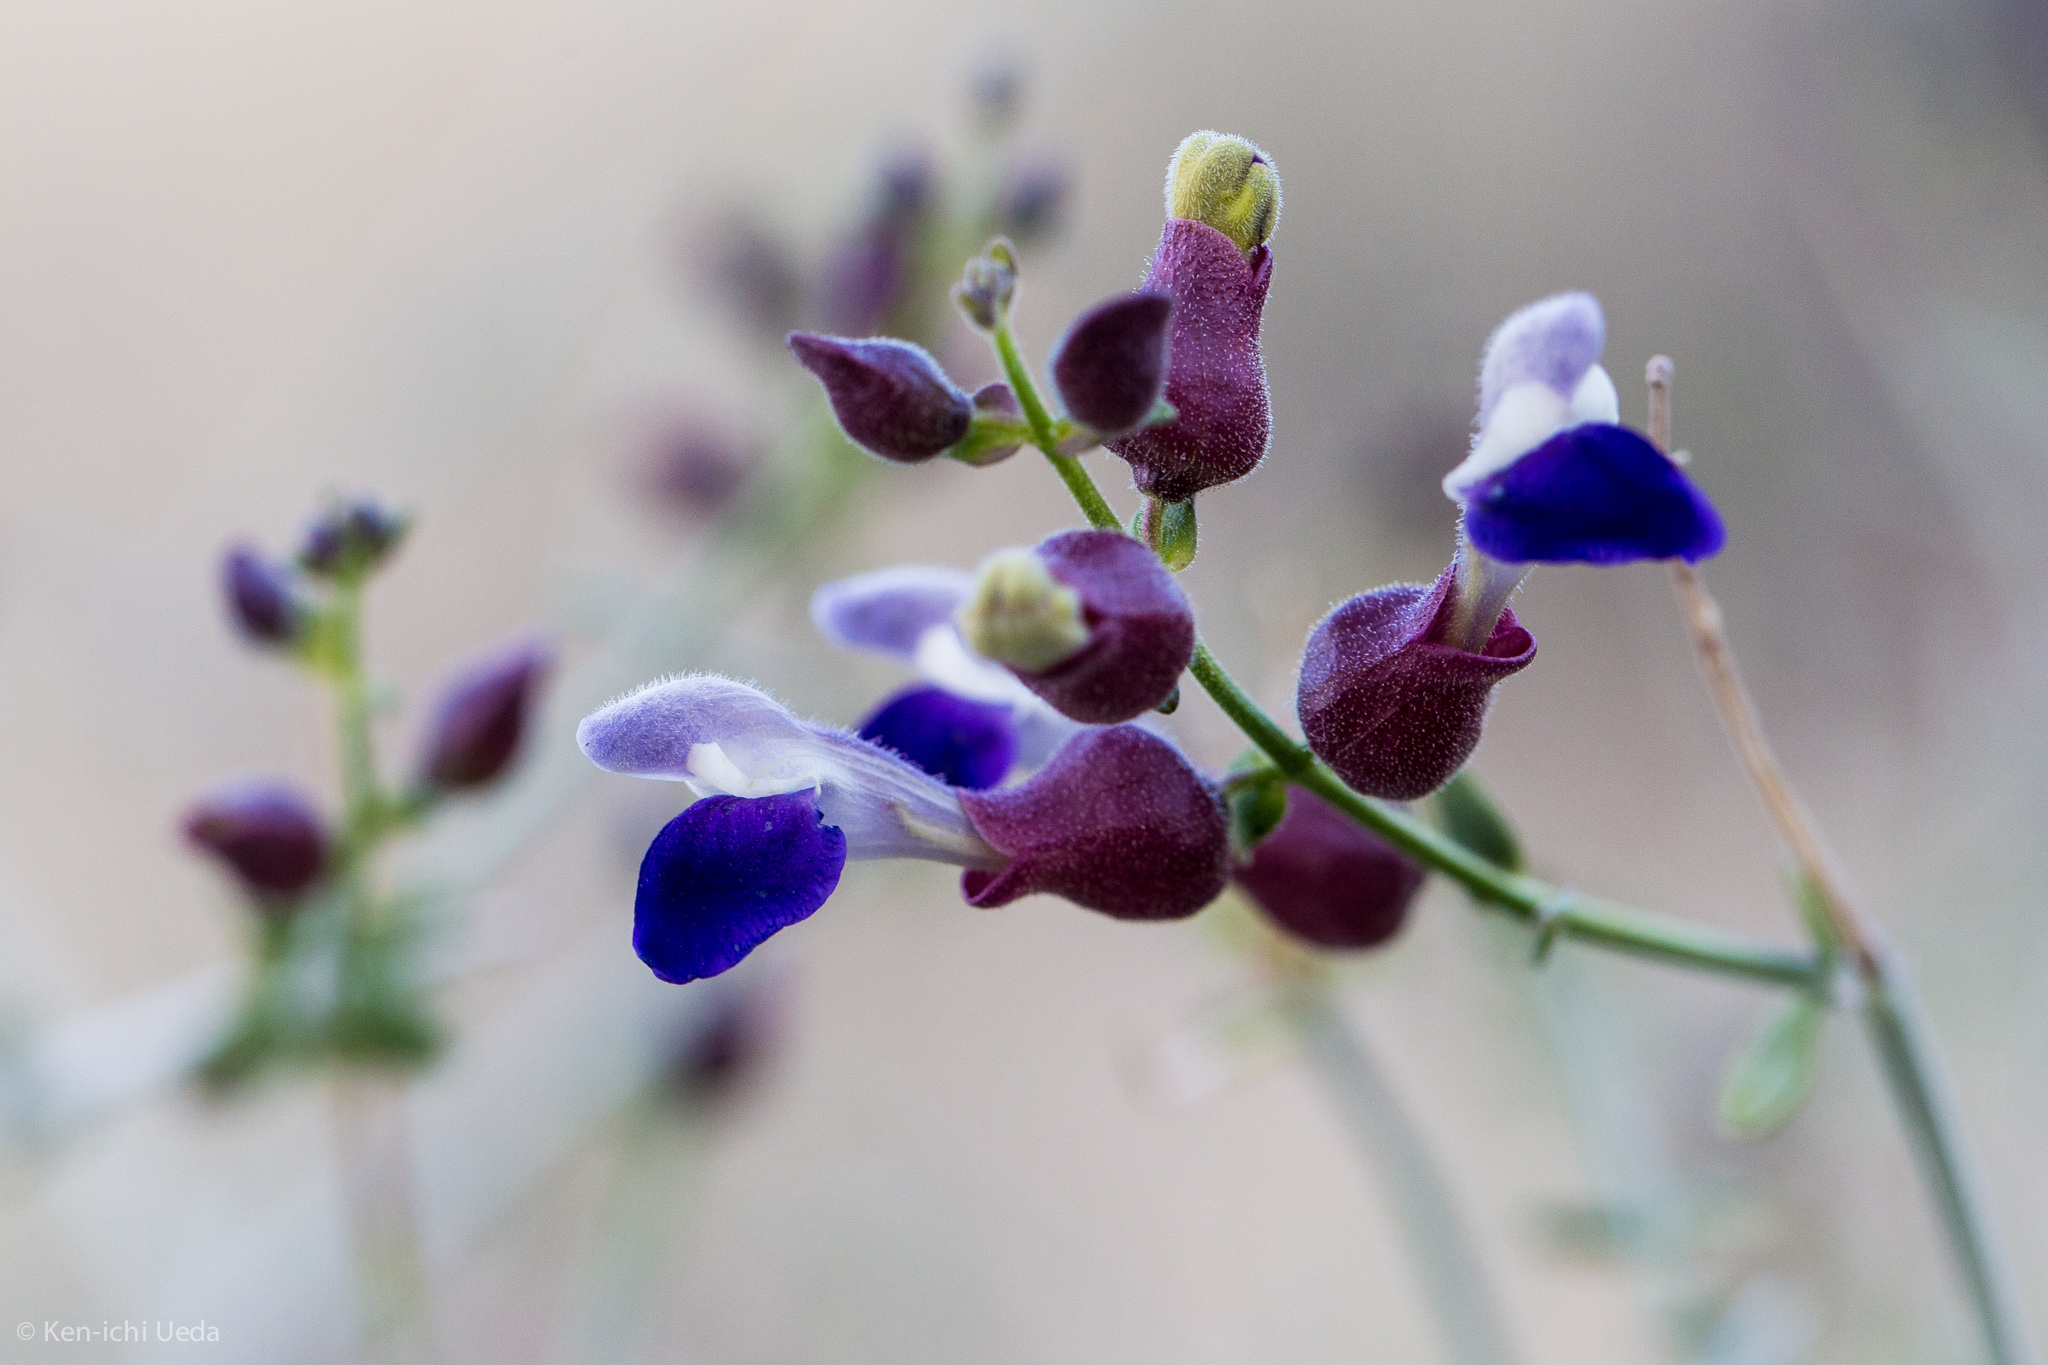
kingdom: Plantae
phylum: Tracheophyta
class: Magnoliopsida
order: Lamiales
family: Lamiaceae
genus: Scutellaria
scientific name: Scutellaria mexicana
